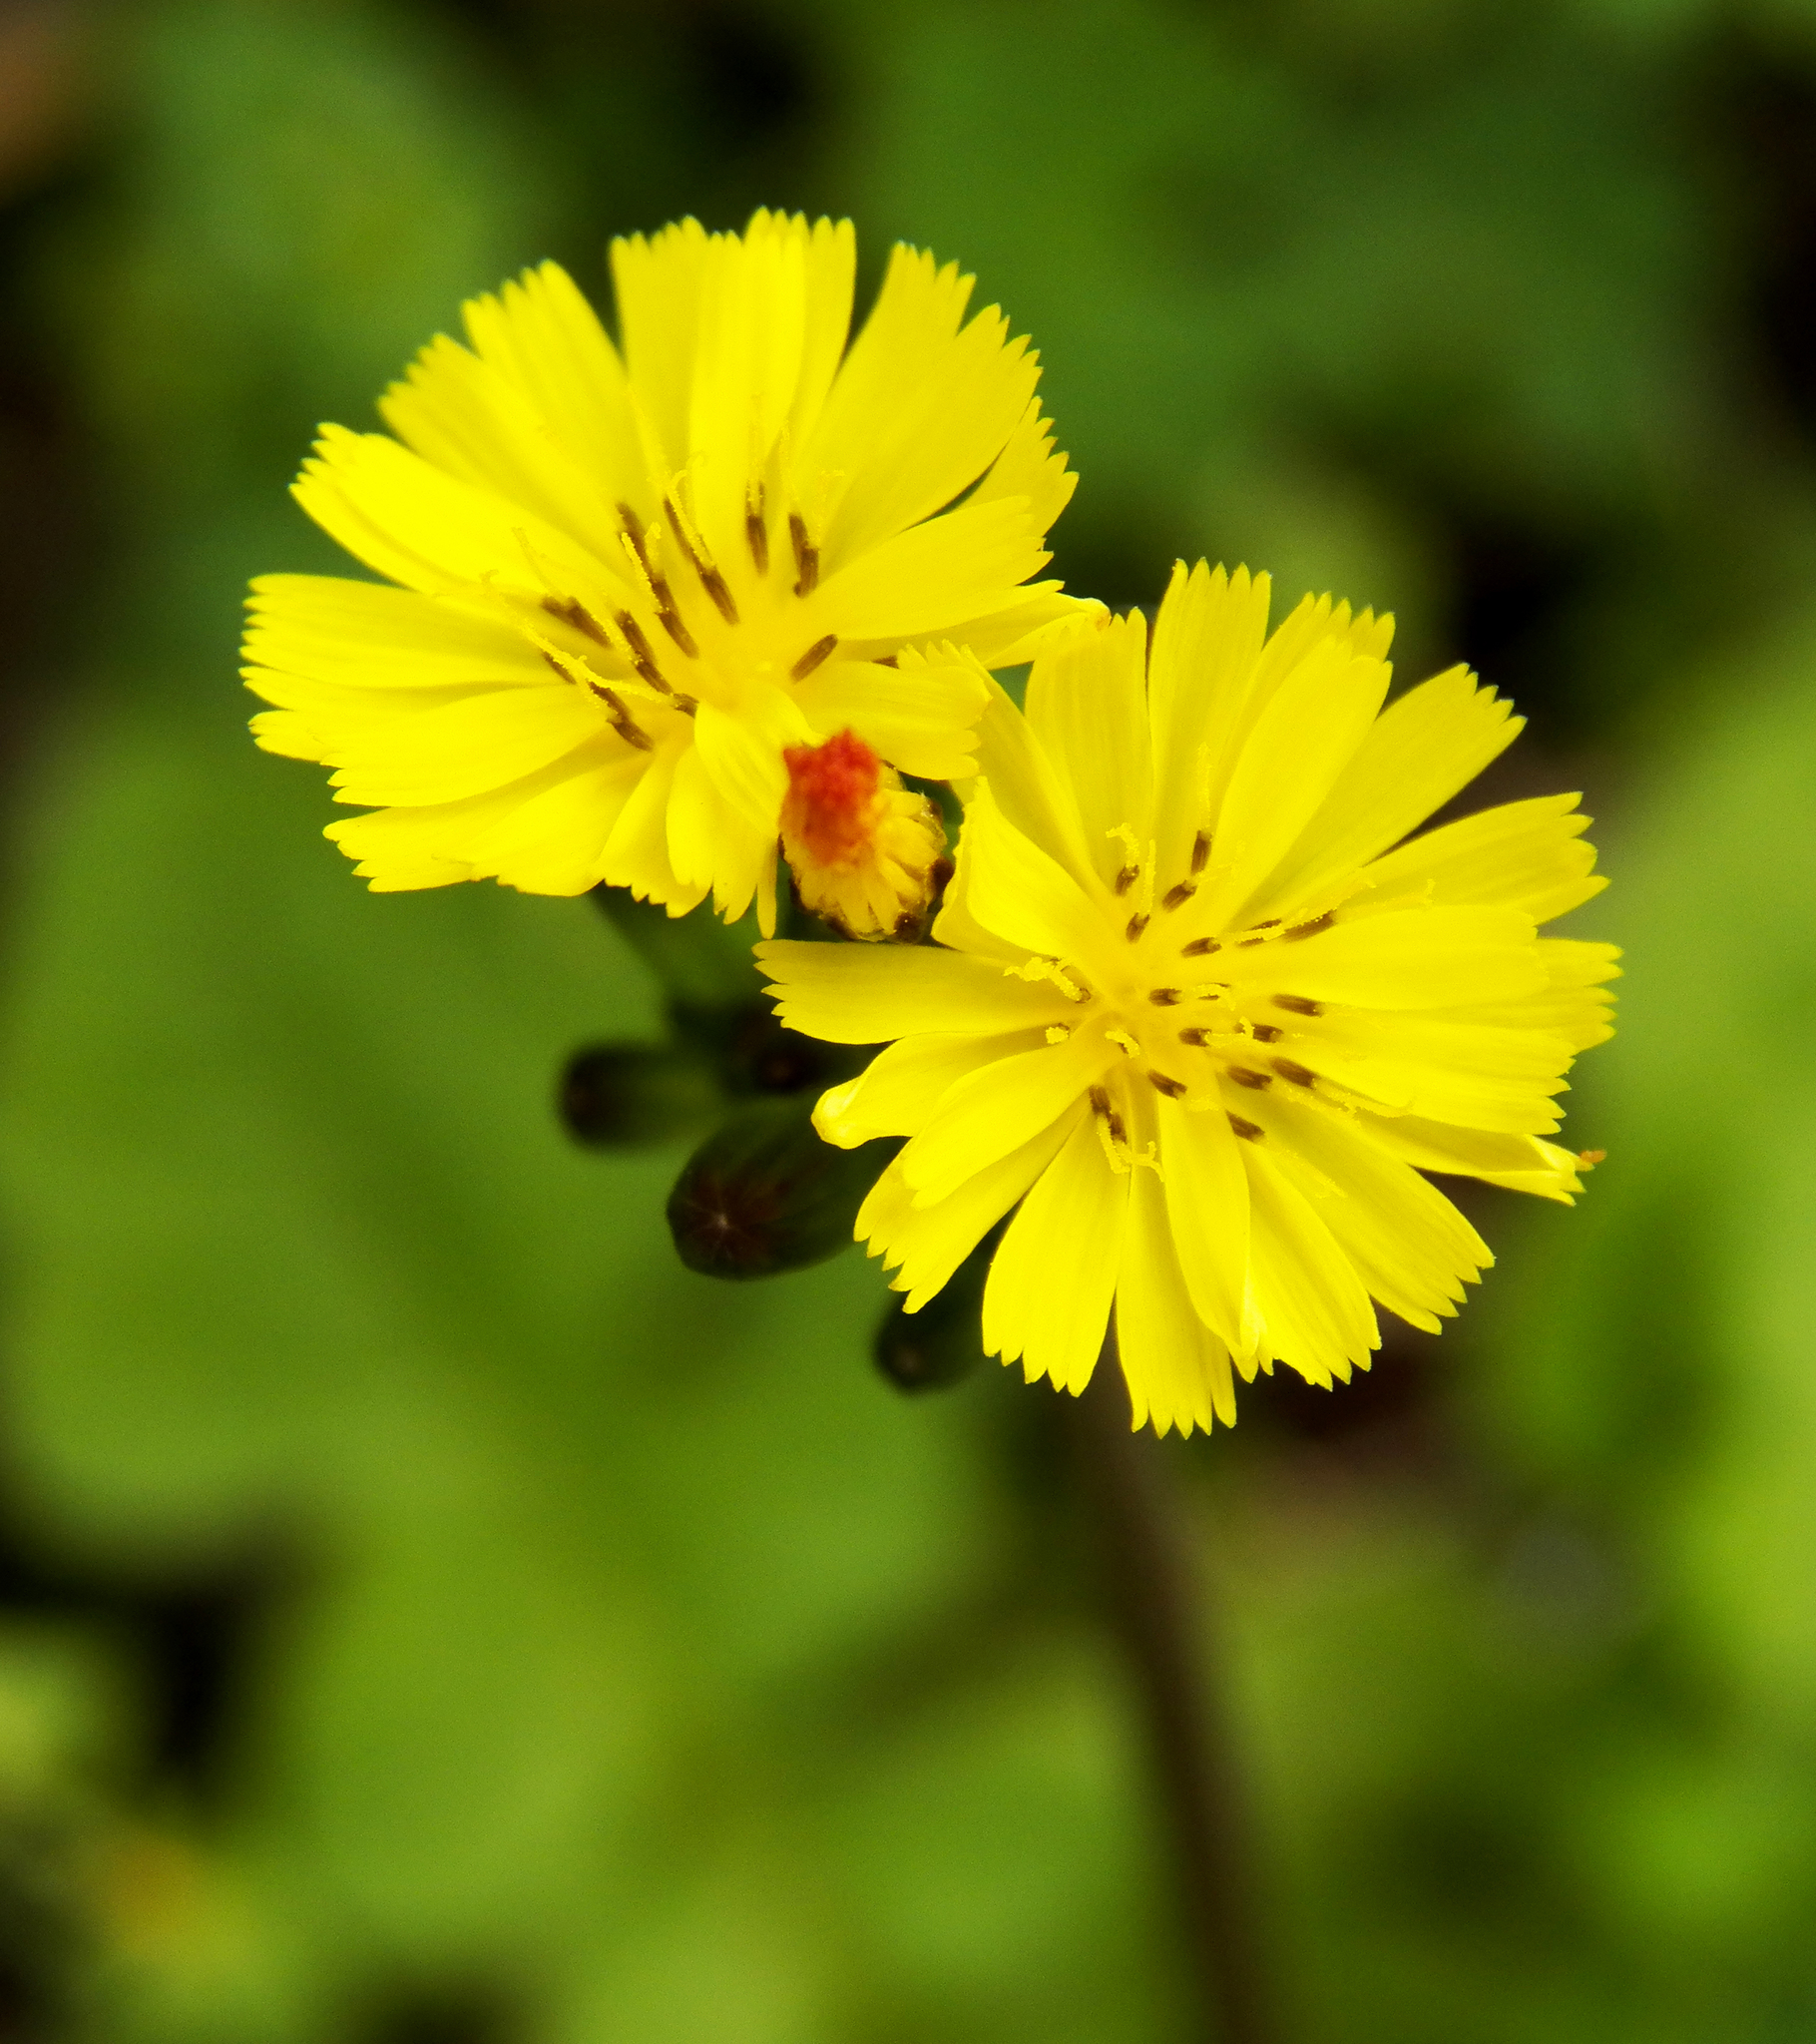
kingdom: Plantae
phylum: Tracheophyta
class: Magnoliopsida
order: Asterales
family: Asteraceae
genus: Youngia
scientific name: Youngia japonica
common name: Oriental false hawksbeard
